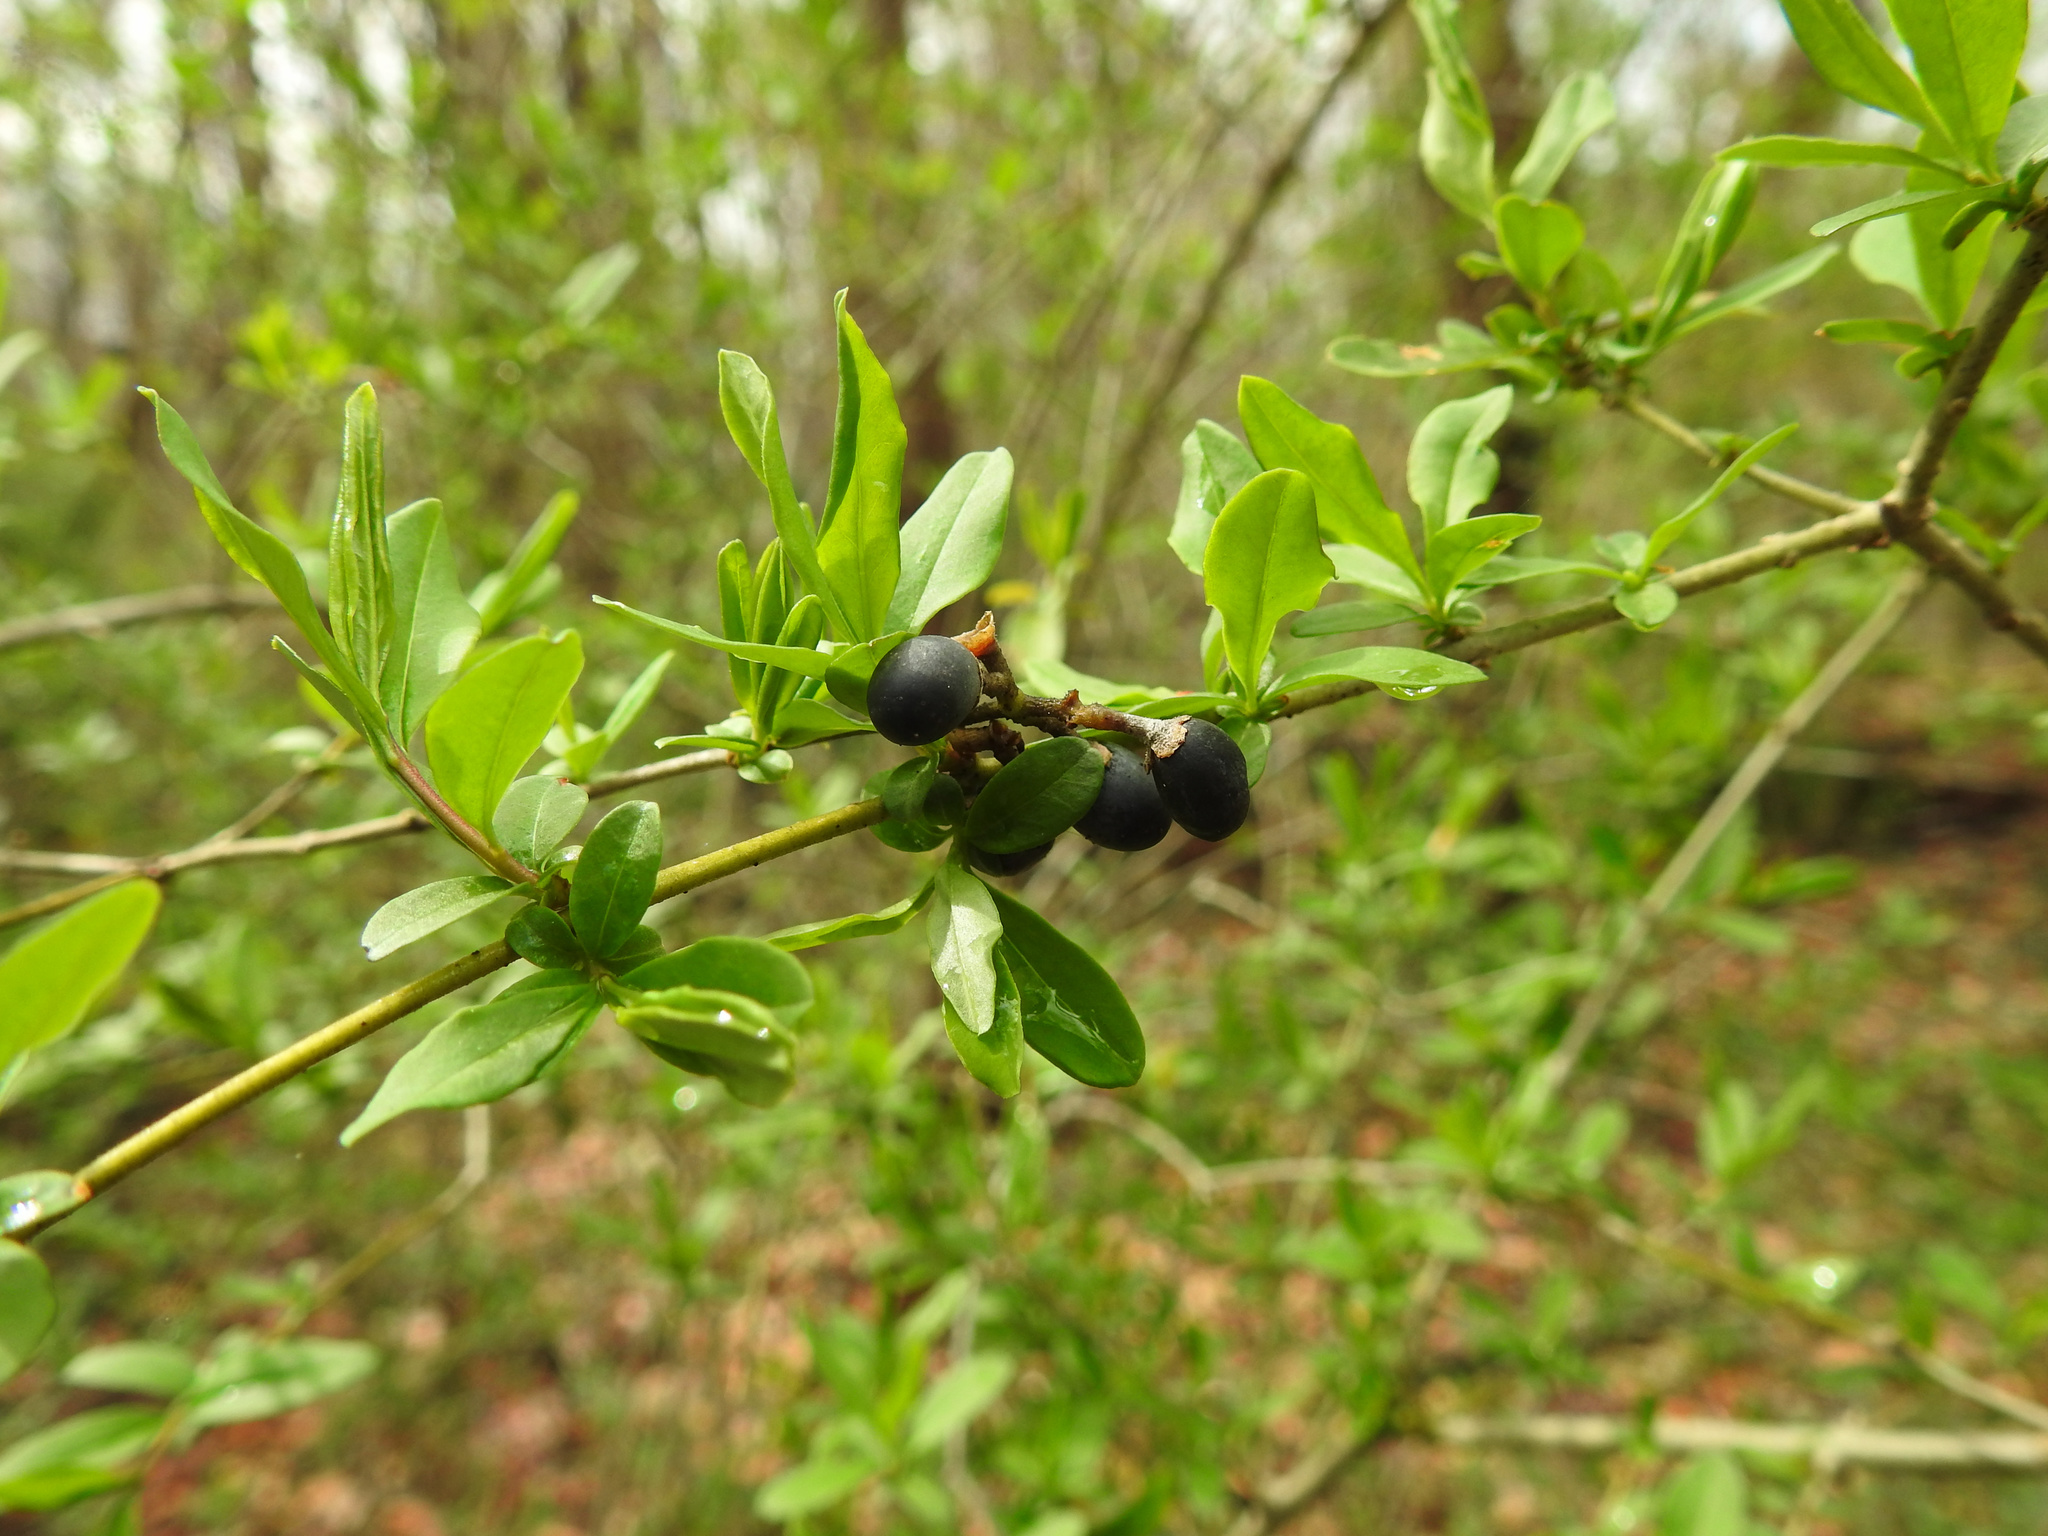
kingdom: Plantae
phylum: Tracheophyta
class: Magnoliopsida
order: Lamiales
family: Oleaceae
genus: Ligustrum
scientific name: Ligustrum obtusifolium
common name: Border privet
